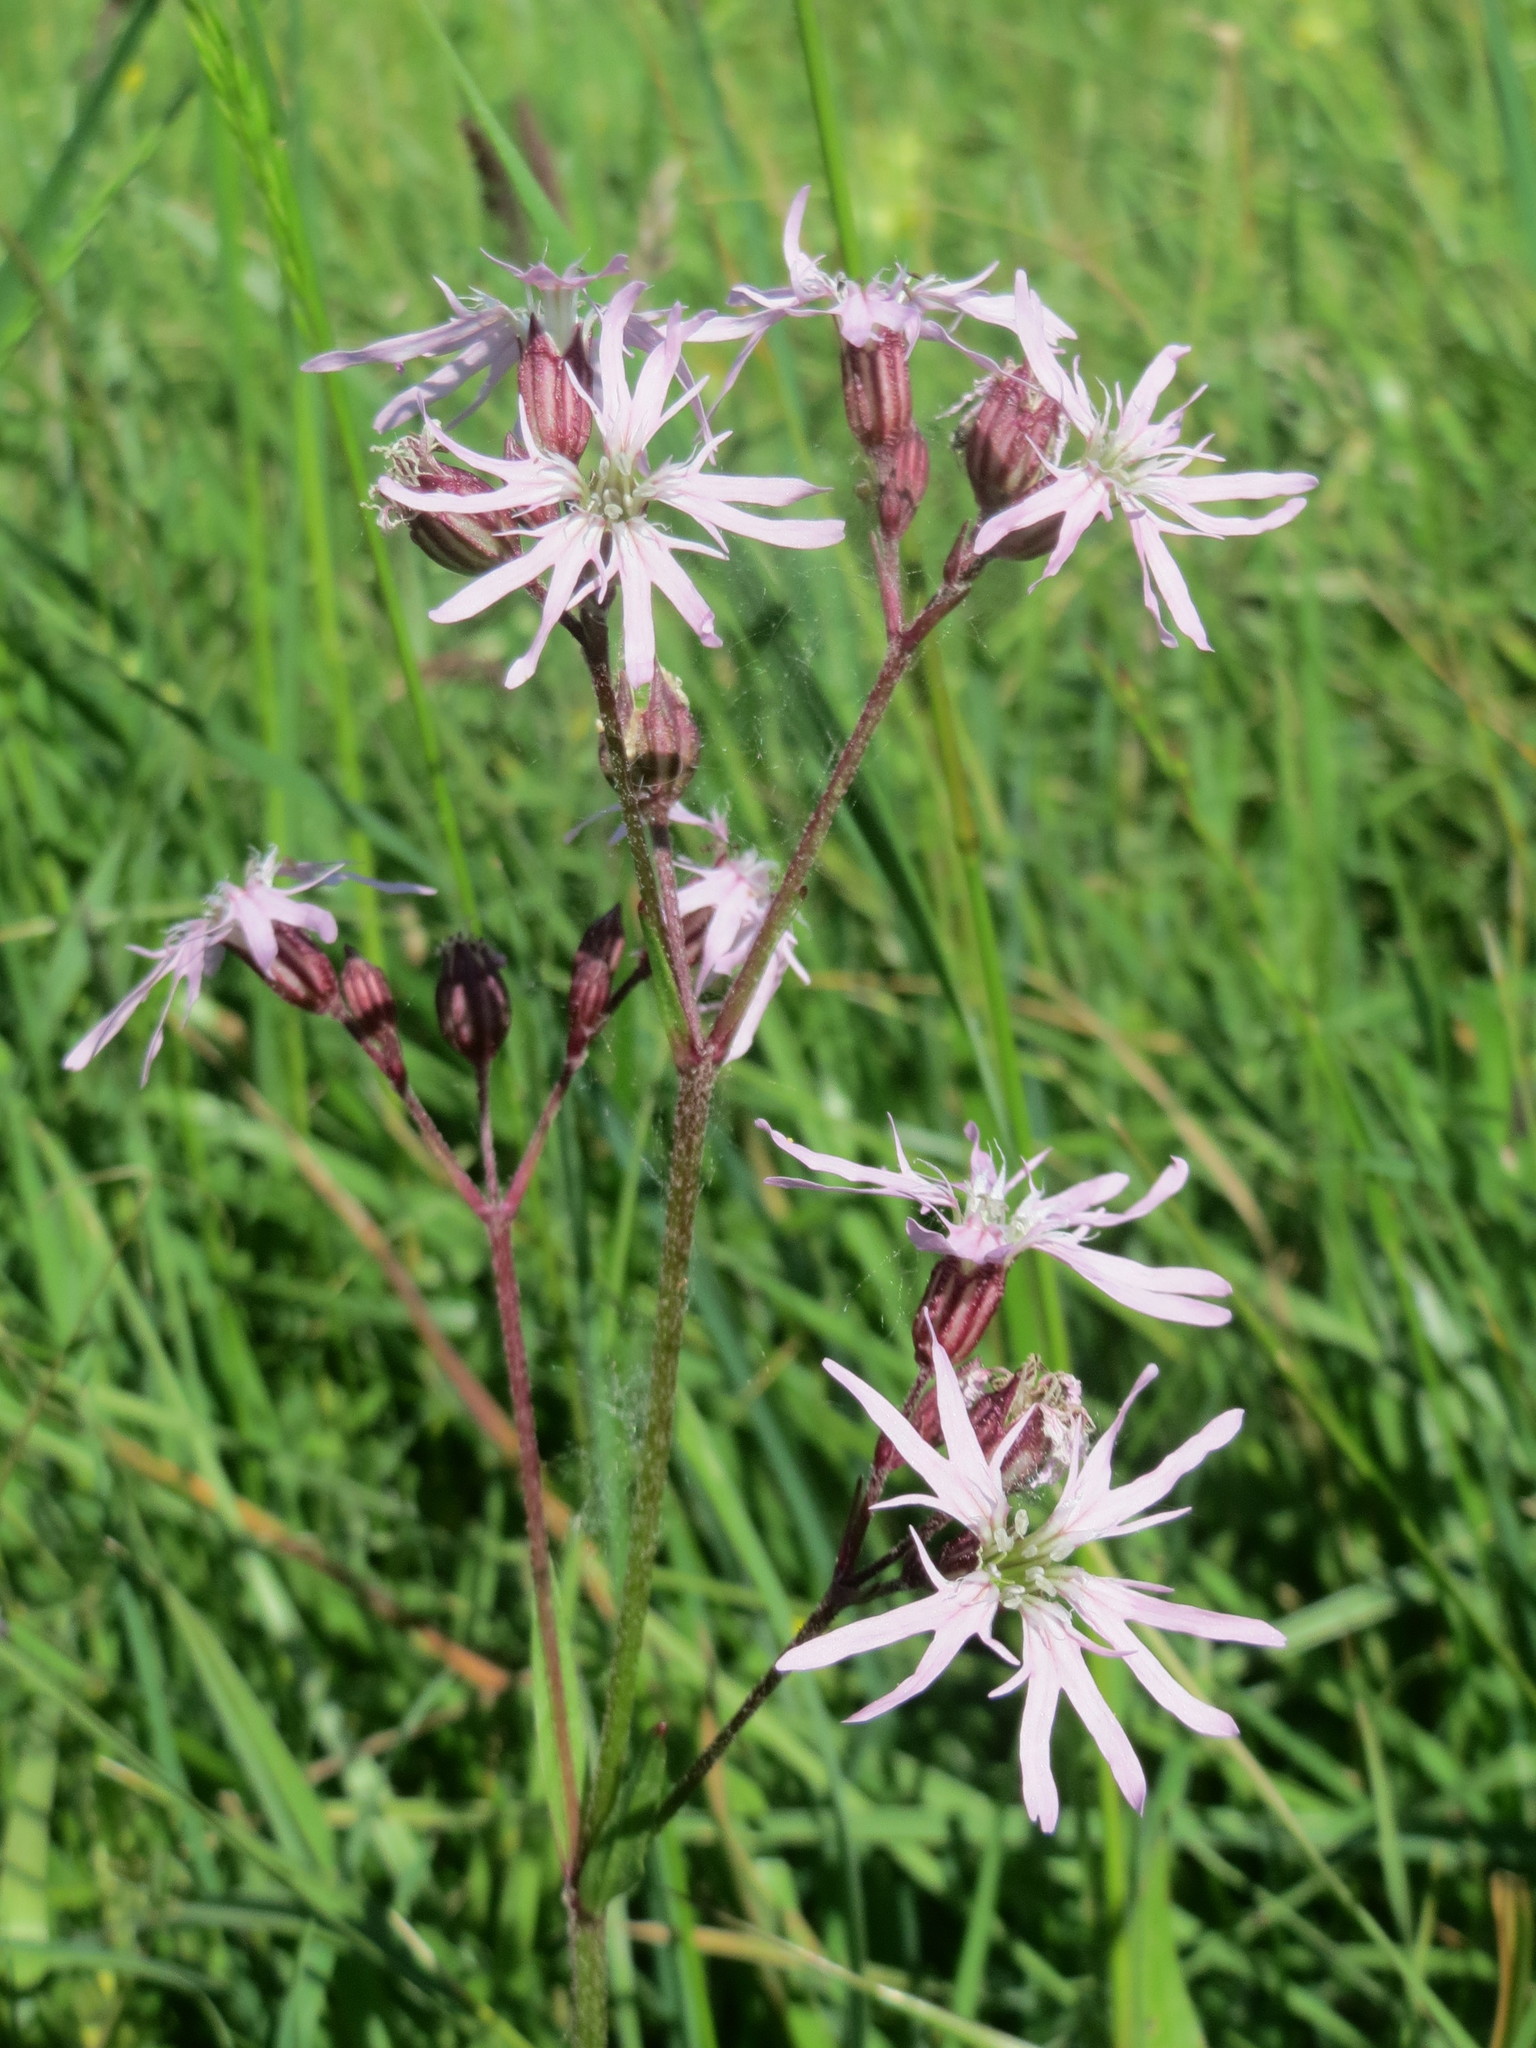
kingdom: Plantae
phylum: Tracheophyta
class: Magnoliopsida
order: Caryophyllales
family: Caryophyllaceae
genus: Silene
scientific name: Silene flos-cuculi
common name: Ragged-robin
